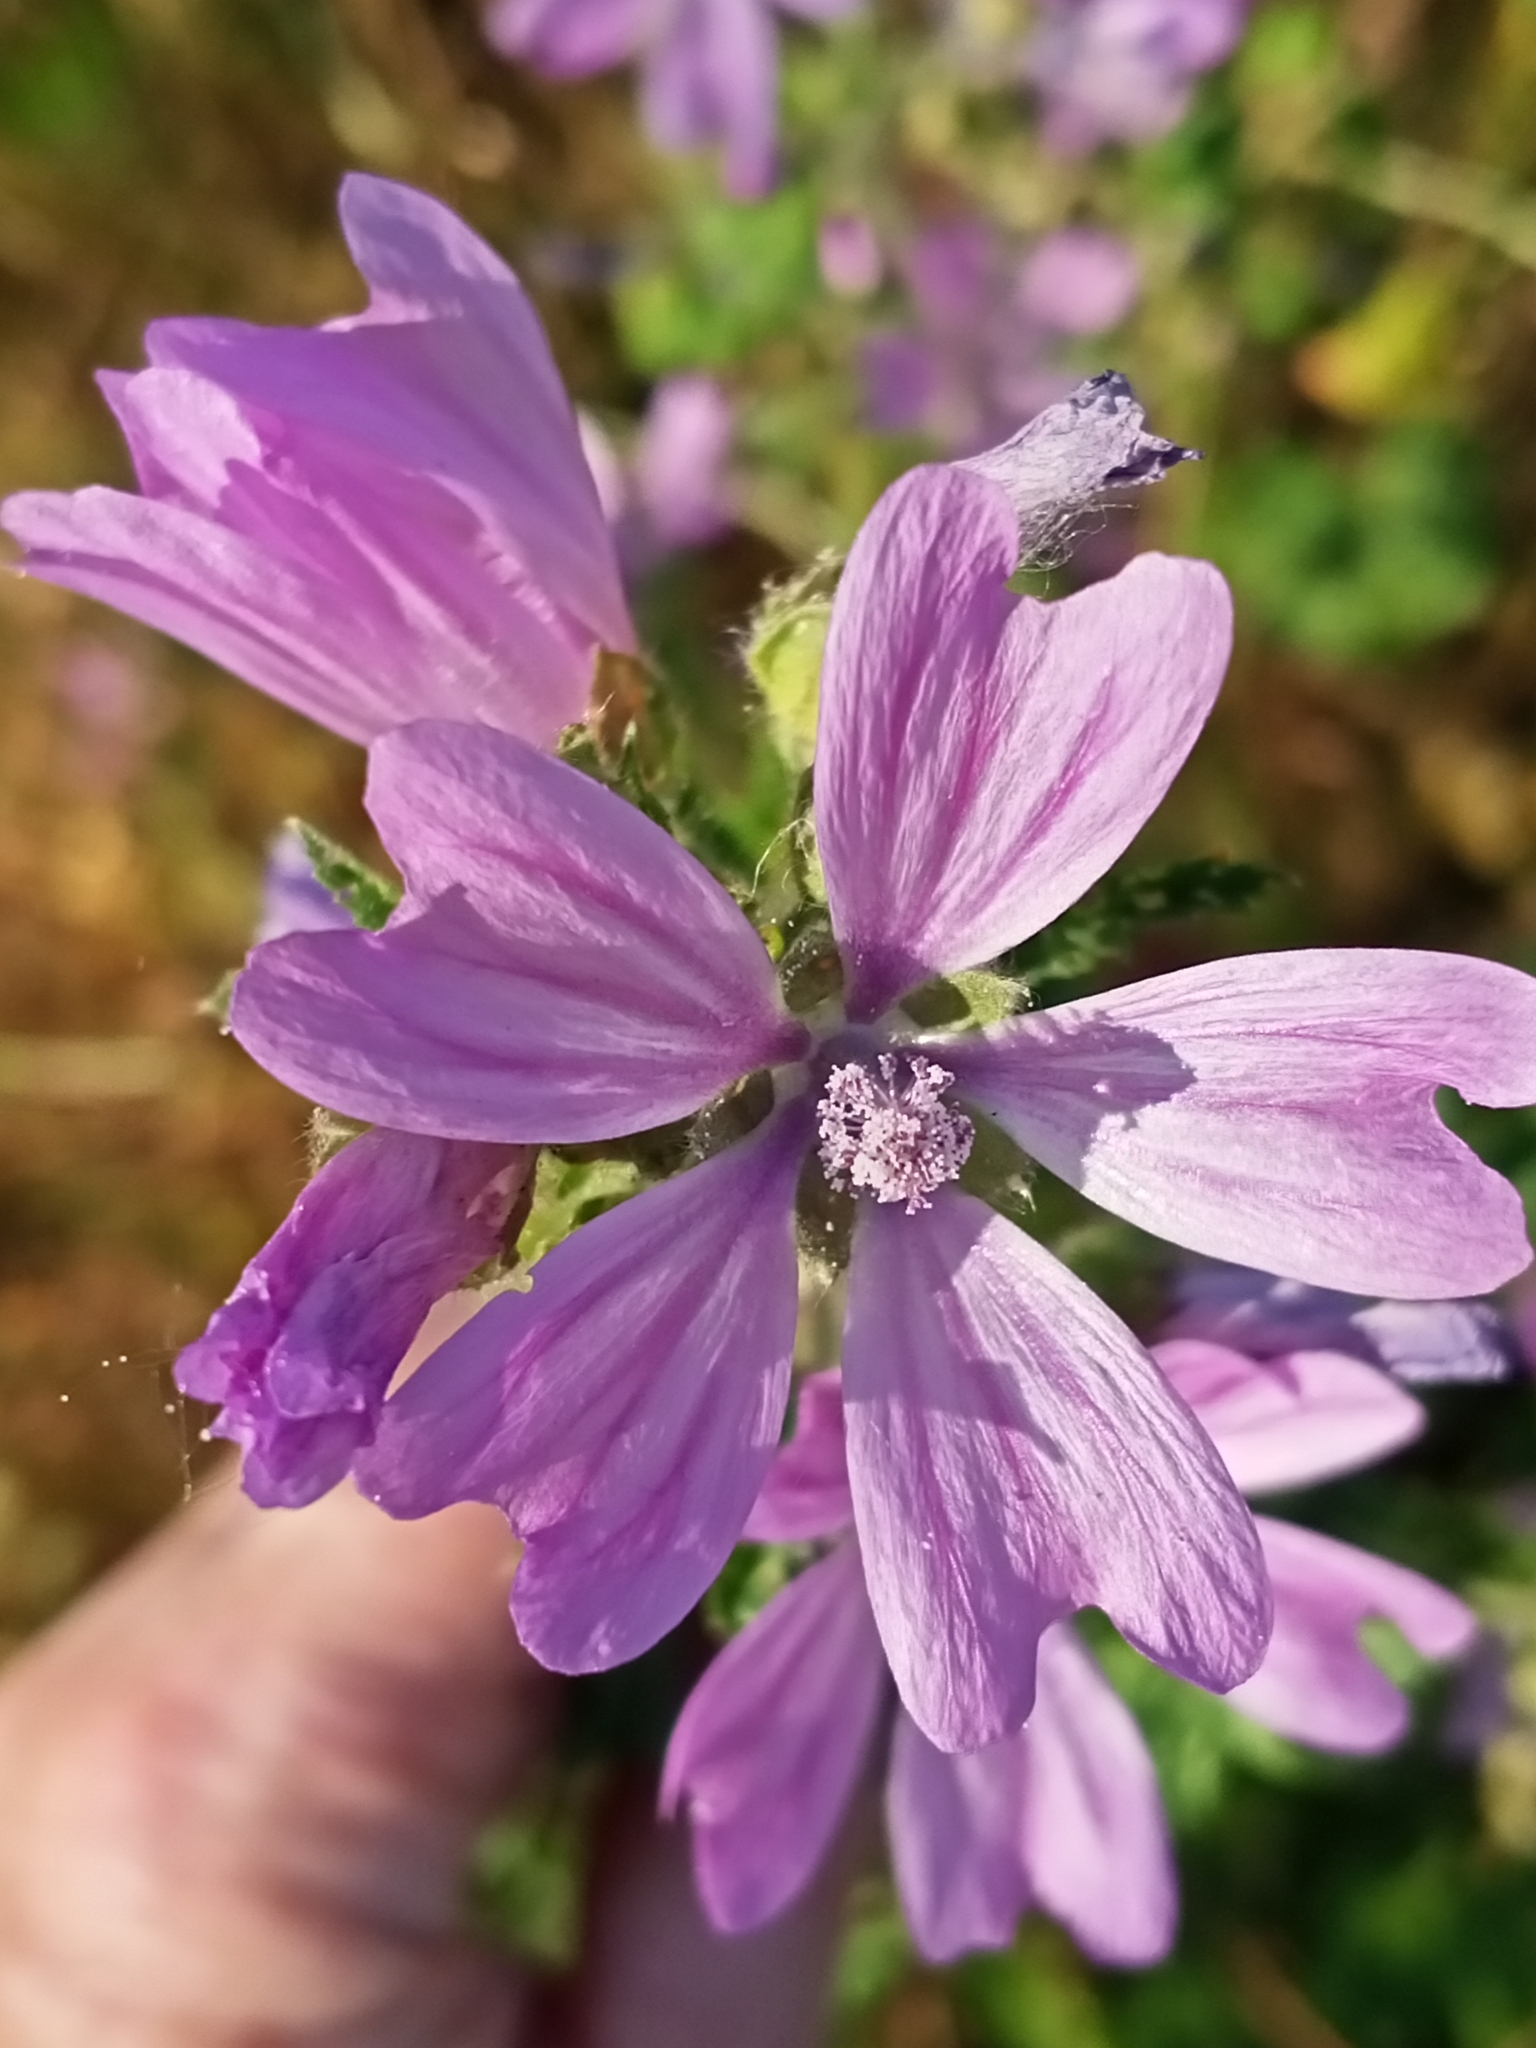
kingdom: Plantae
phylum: Tracheophyta
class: Magnoliopsida
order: Malvales
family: Malvaceae
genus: Malva
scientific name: Malva sylvestris
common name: Common mallow
